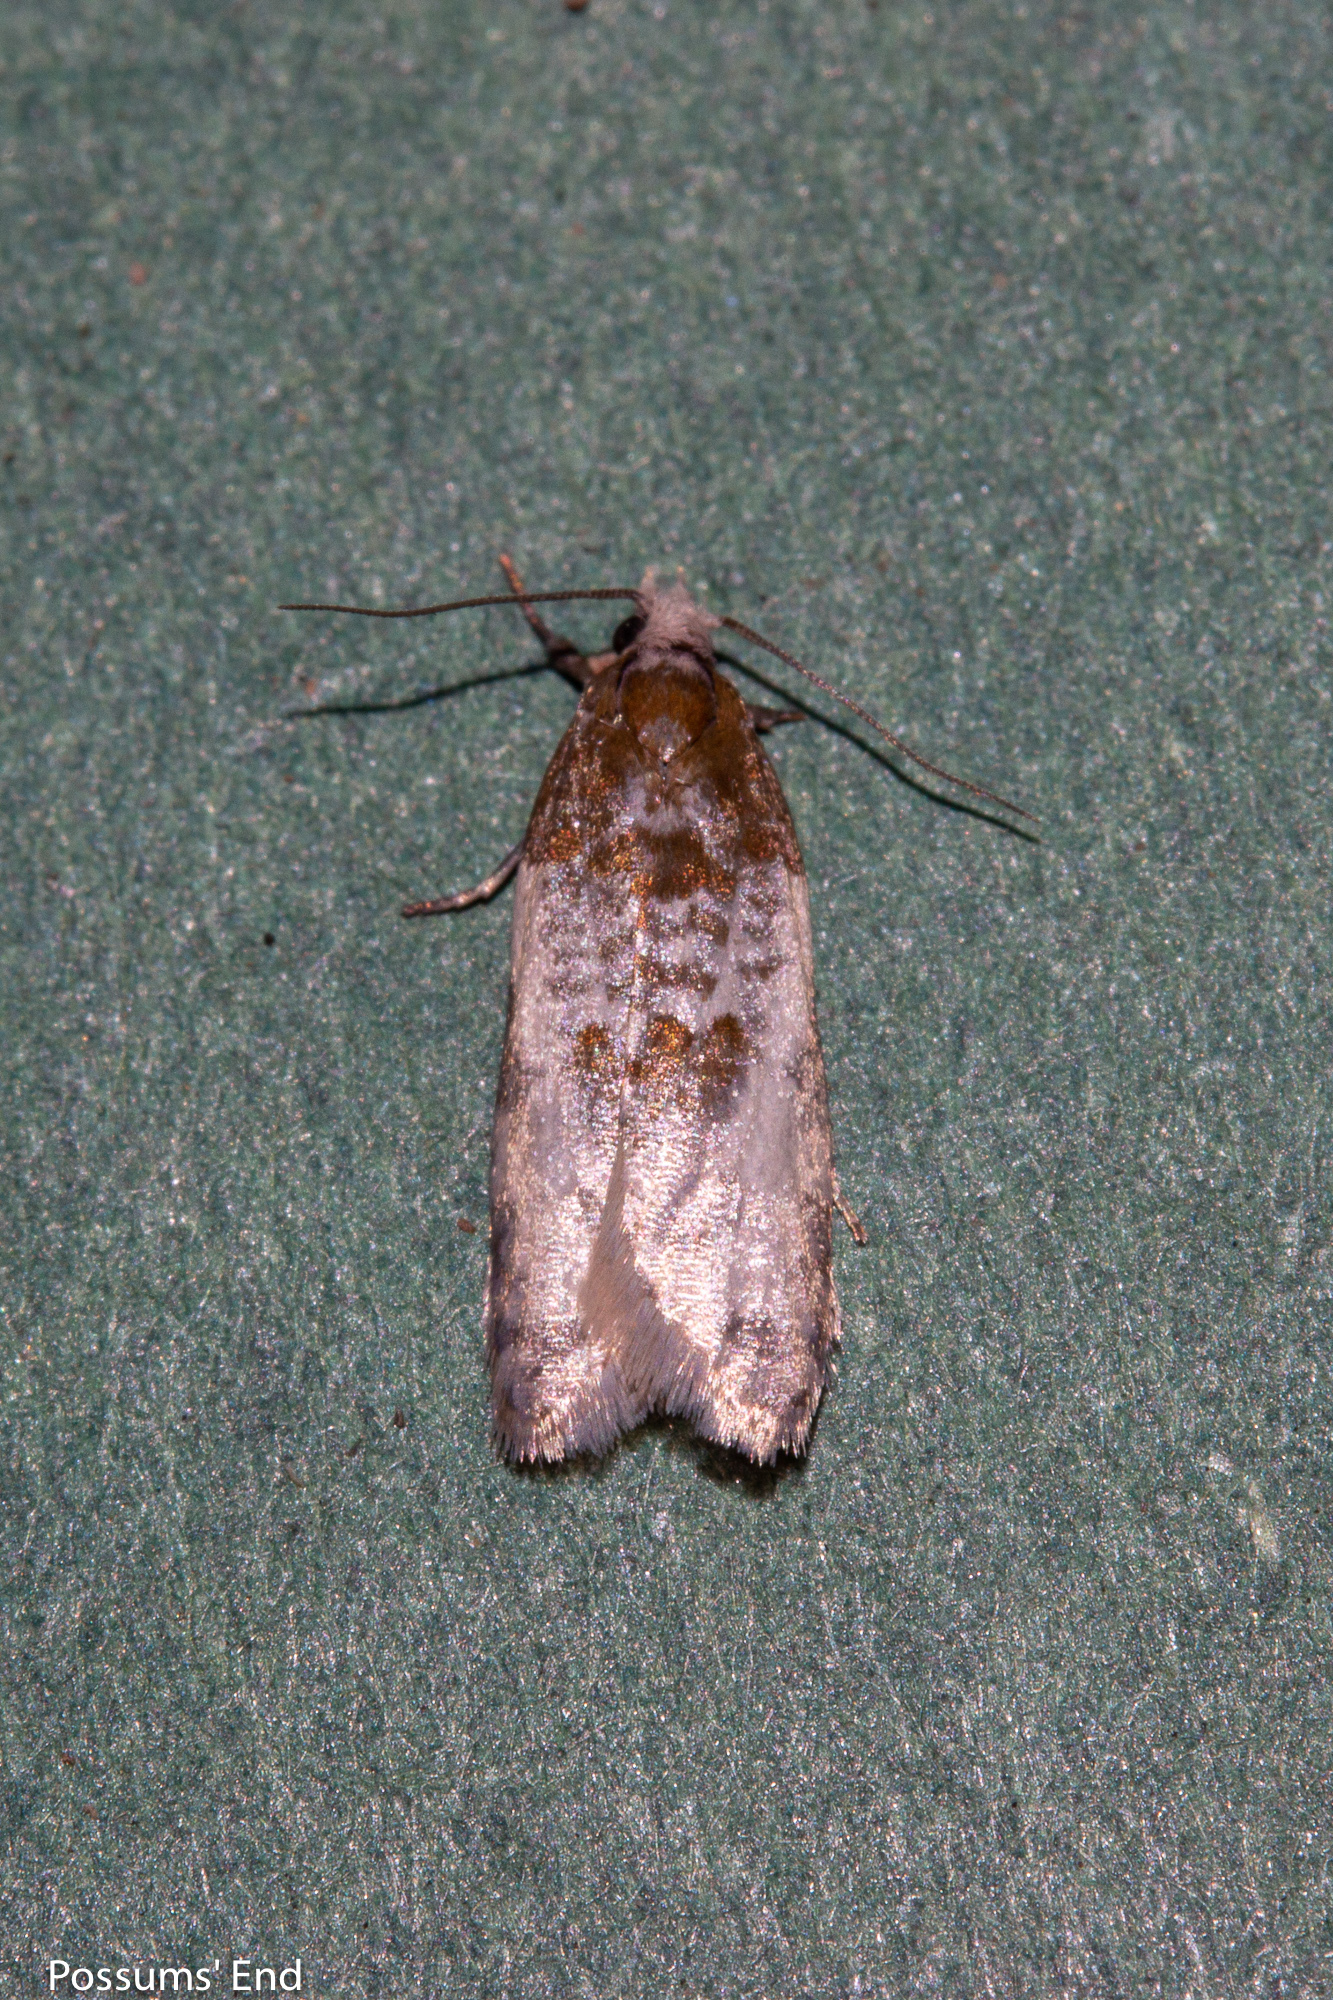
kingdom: Animalia
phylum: Arthropoda
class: Insecta
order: Lepidoptera
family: Tortricidae
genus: Prothelymna
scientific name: Prothelymna niphostrota
